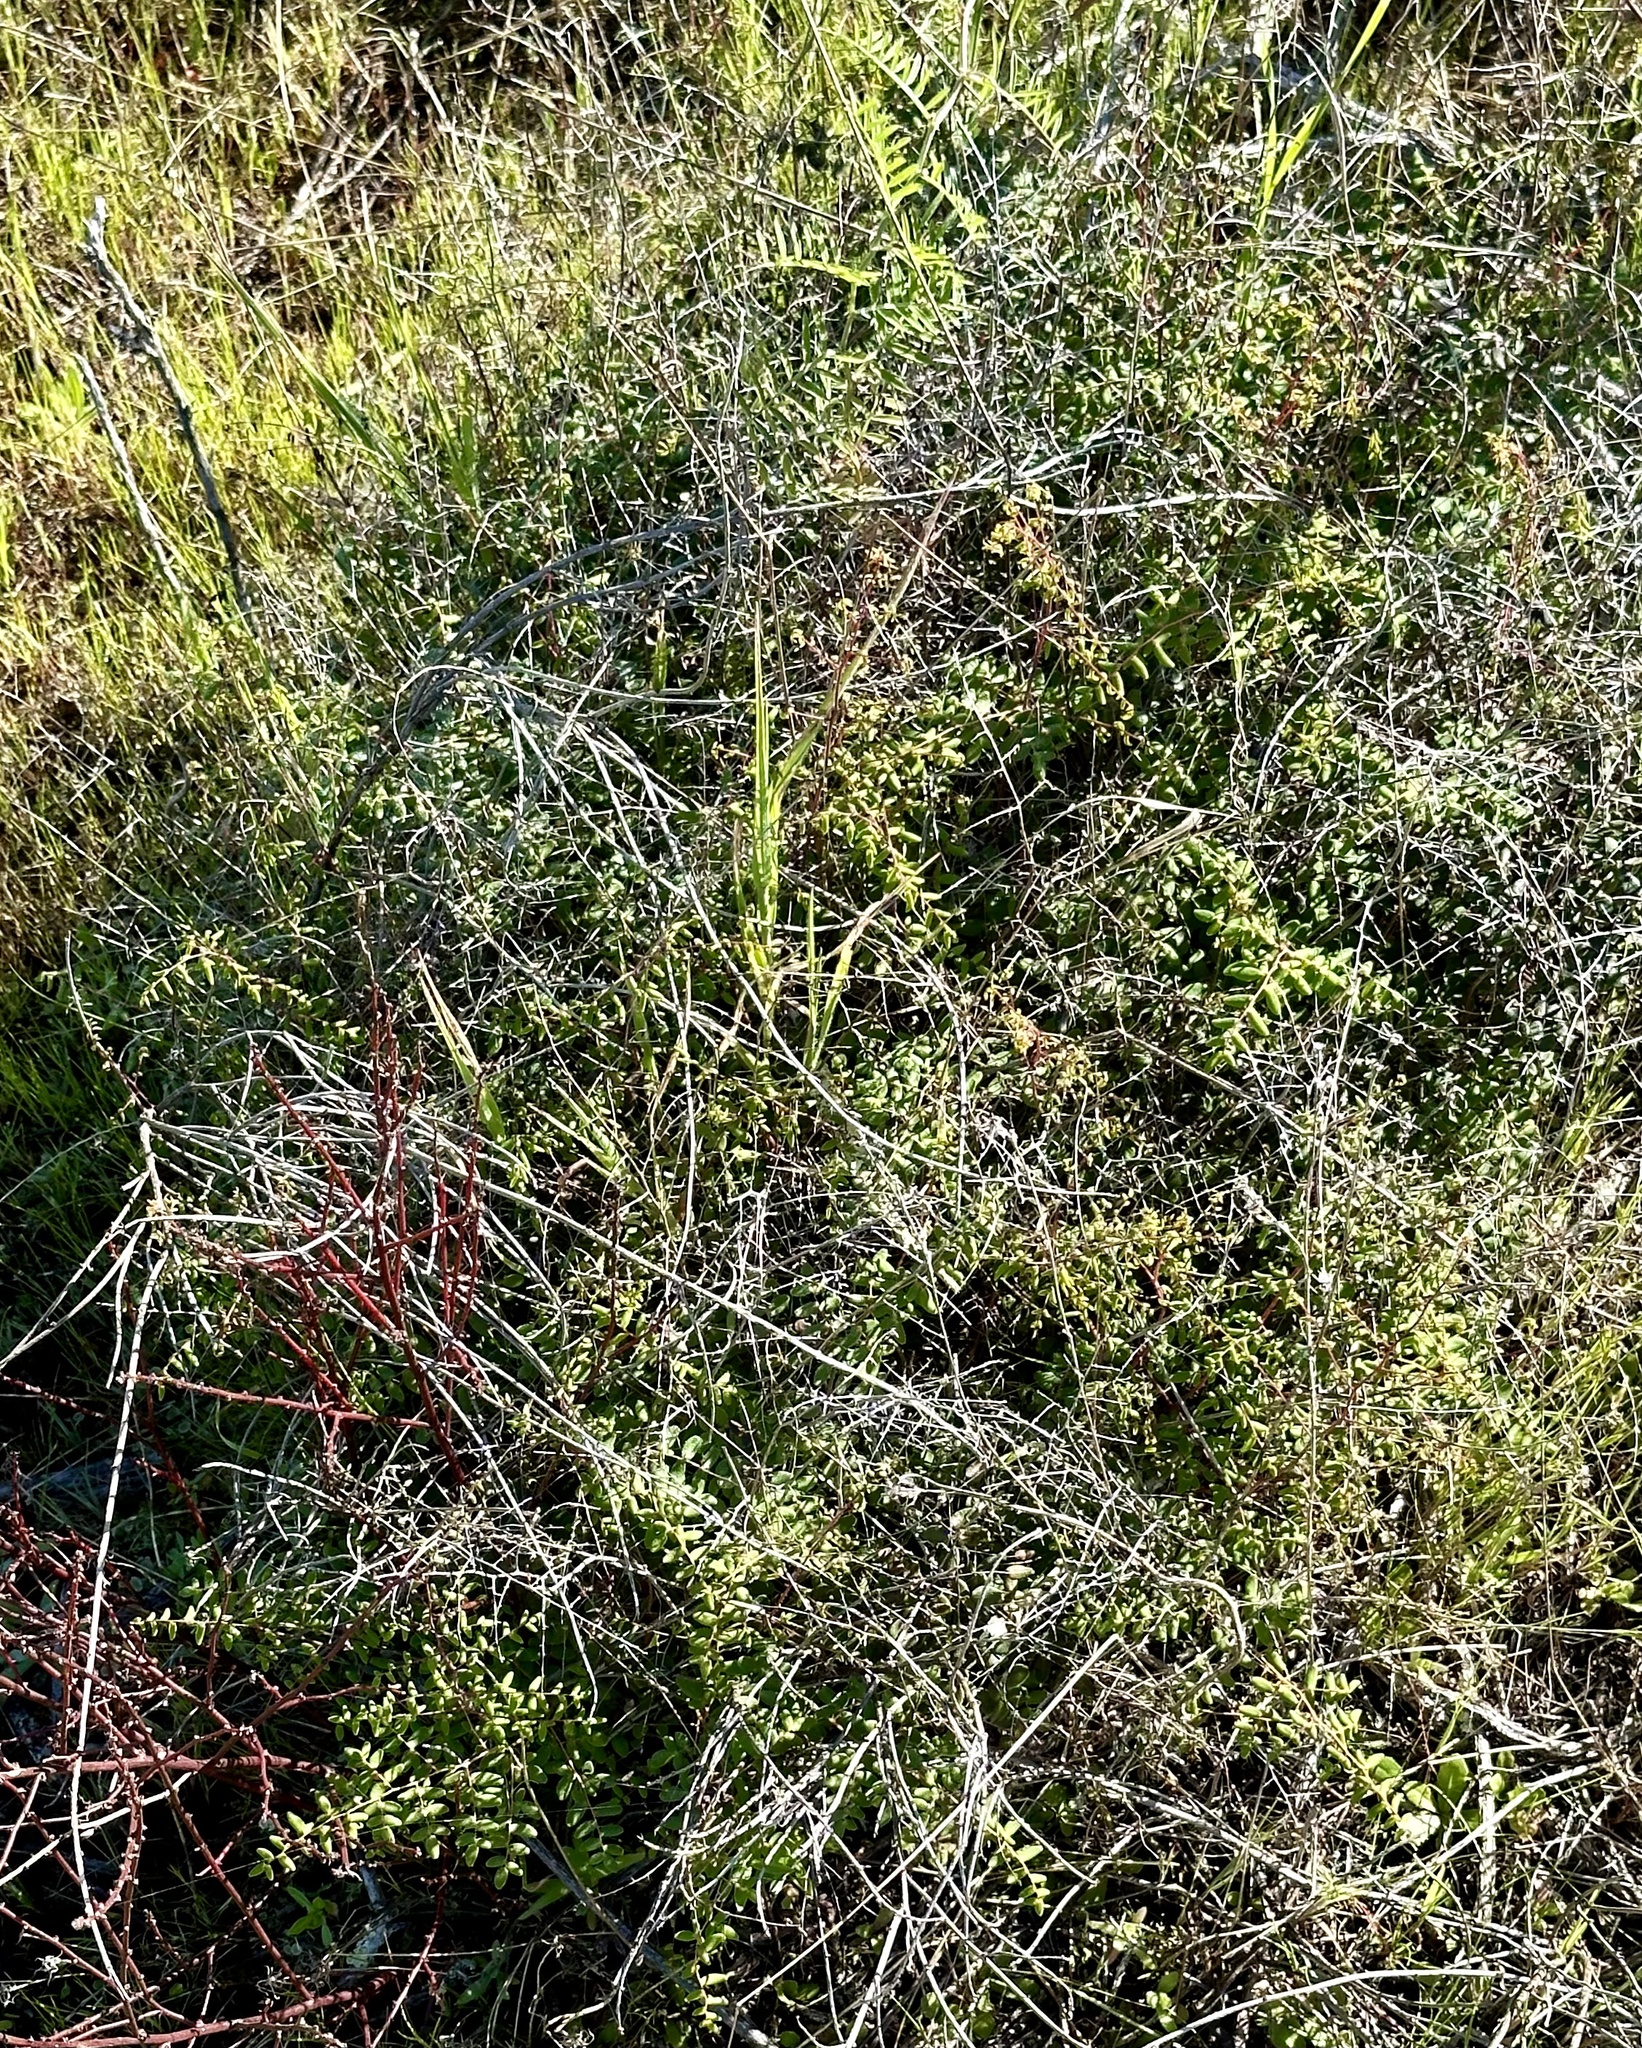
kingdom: Plantae
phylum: Tracheophyta
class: Polypodiopsida
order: Polypodiales
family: Pteridaceae
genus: Pellaea
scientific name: Pellaea andromedifolia
